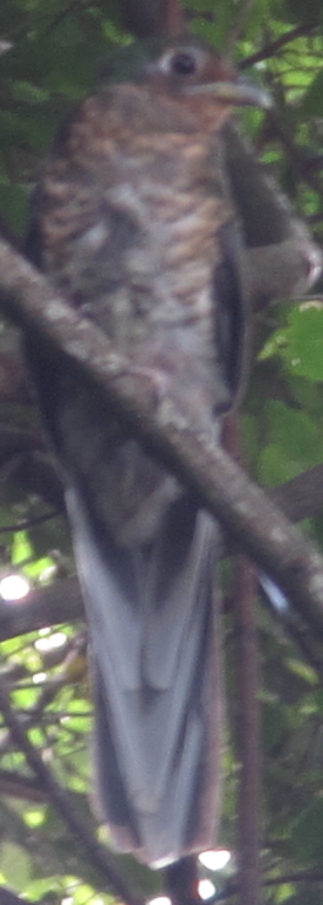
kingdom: Animalia
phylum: Chordata
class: Aves
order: Trogoniformes
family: Trogonidae
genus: Apaloderma
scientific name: Apaloderma narina
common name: Narina trogon
